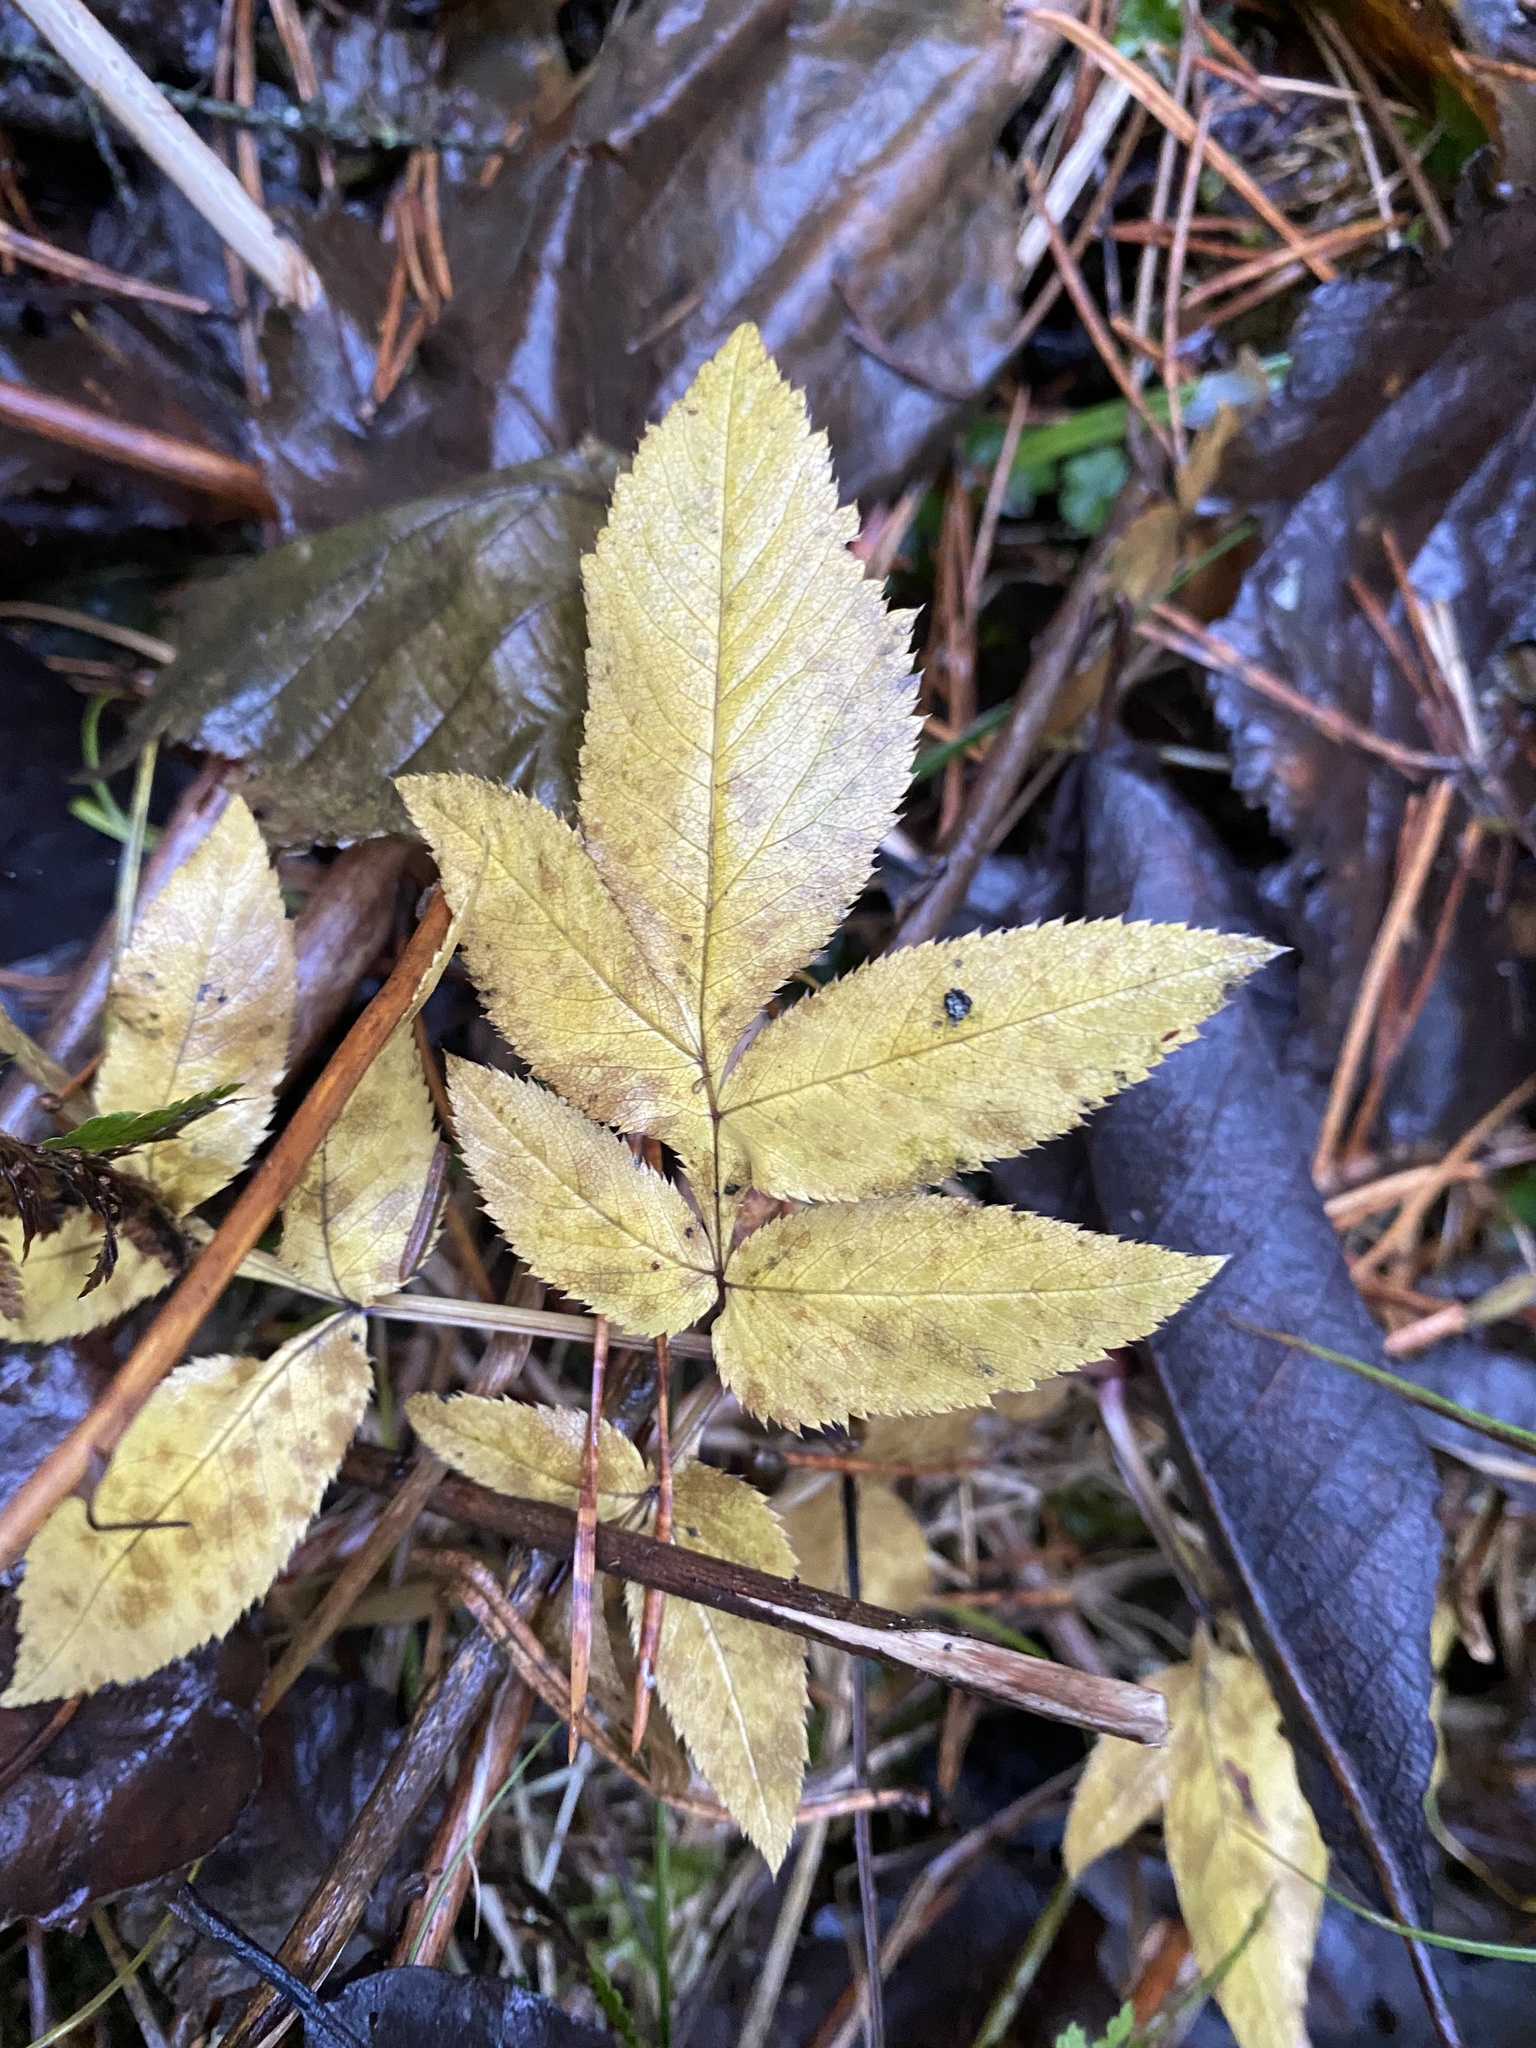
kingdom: Plantae
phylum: Tracheophyta
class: Magnoliopsida
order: Apiales
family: Apiaceae
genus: Angelica
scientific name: Angelica sylvestris
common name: Wild angelica
